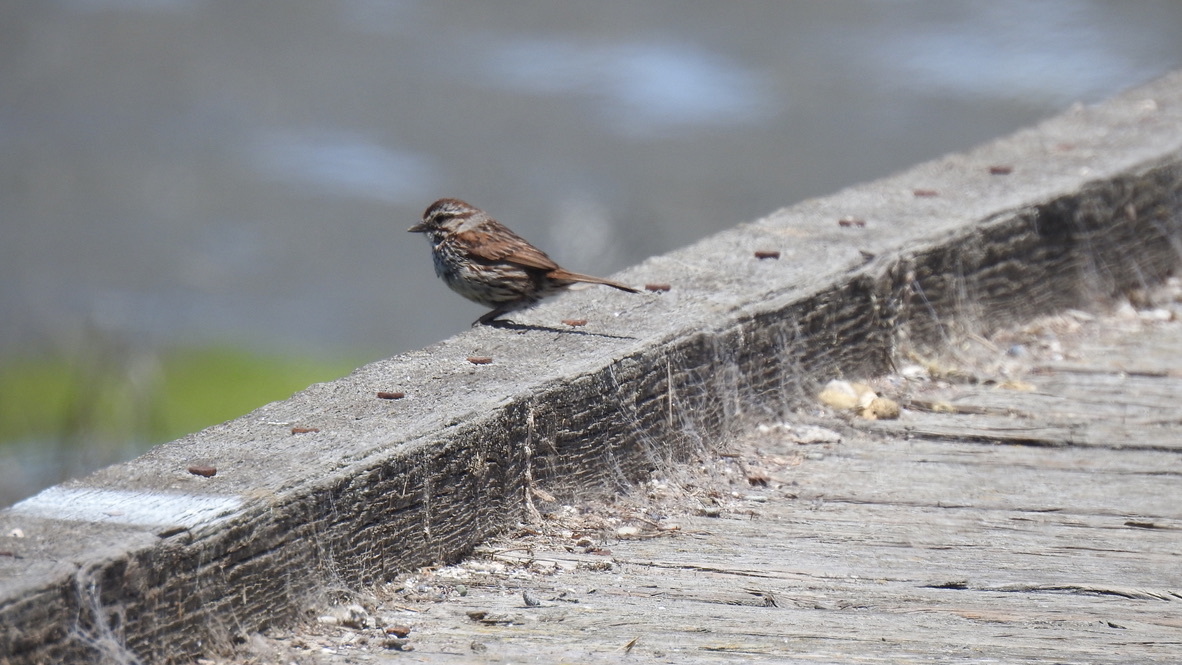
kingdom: Animalia
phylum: Chordata
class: Aves
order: Passeriformes
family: Passerellidae
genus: Melospiza
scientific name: Melospiza melodia
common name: Song sparrow
